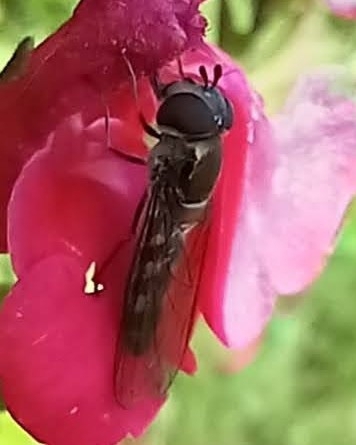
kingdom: Animalia
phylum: Arthropoda
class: Insecta
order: Diptera
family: Syrphidae
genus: Meliscaeva
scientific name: Meliscaeva auricollis
